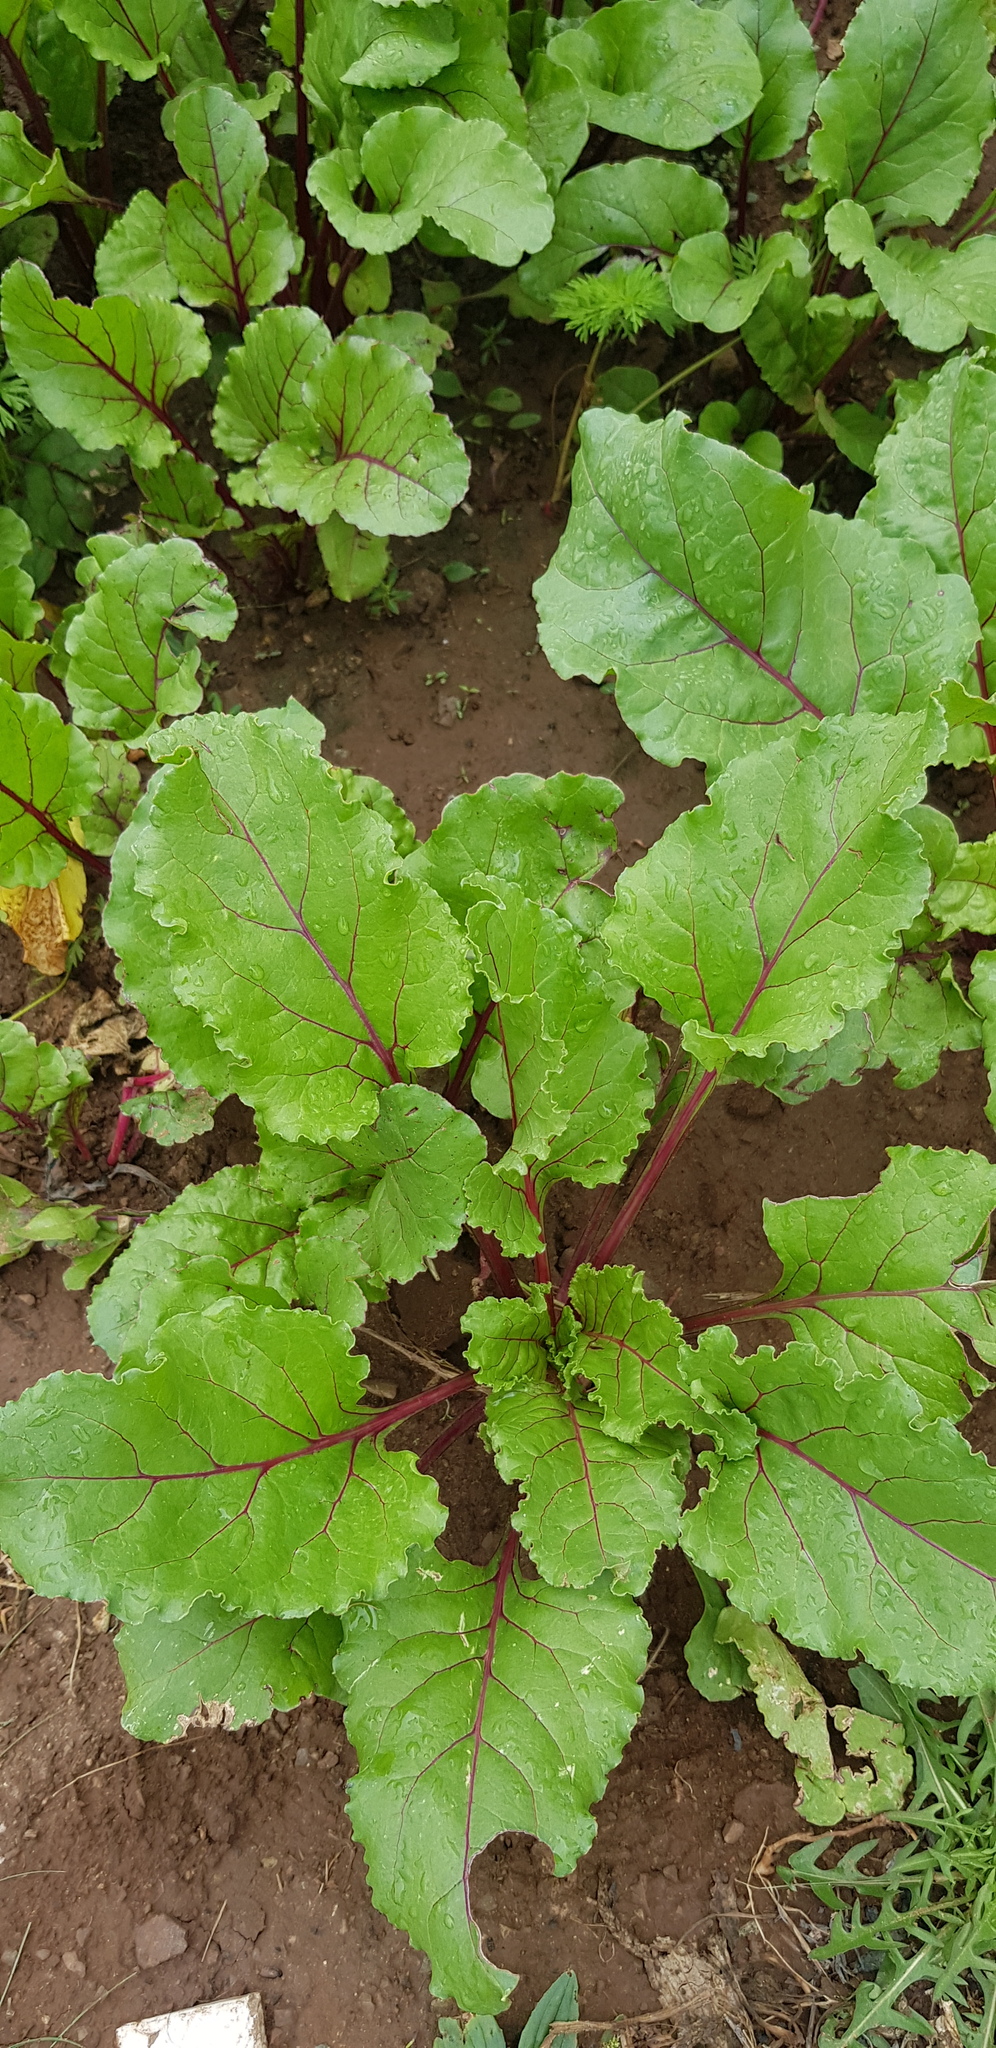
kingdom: Plantae
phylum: Tracheophyta
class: Magnoliopsida
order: Caryophyllales
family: Amaranthaceae
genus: Beta
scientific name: Beta vulgaris
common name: Beet
